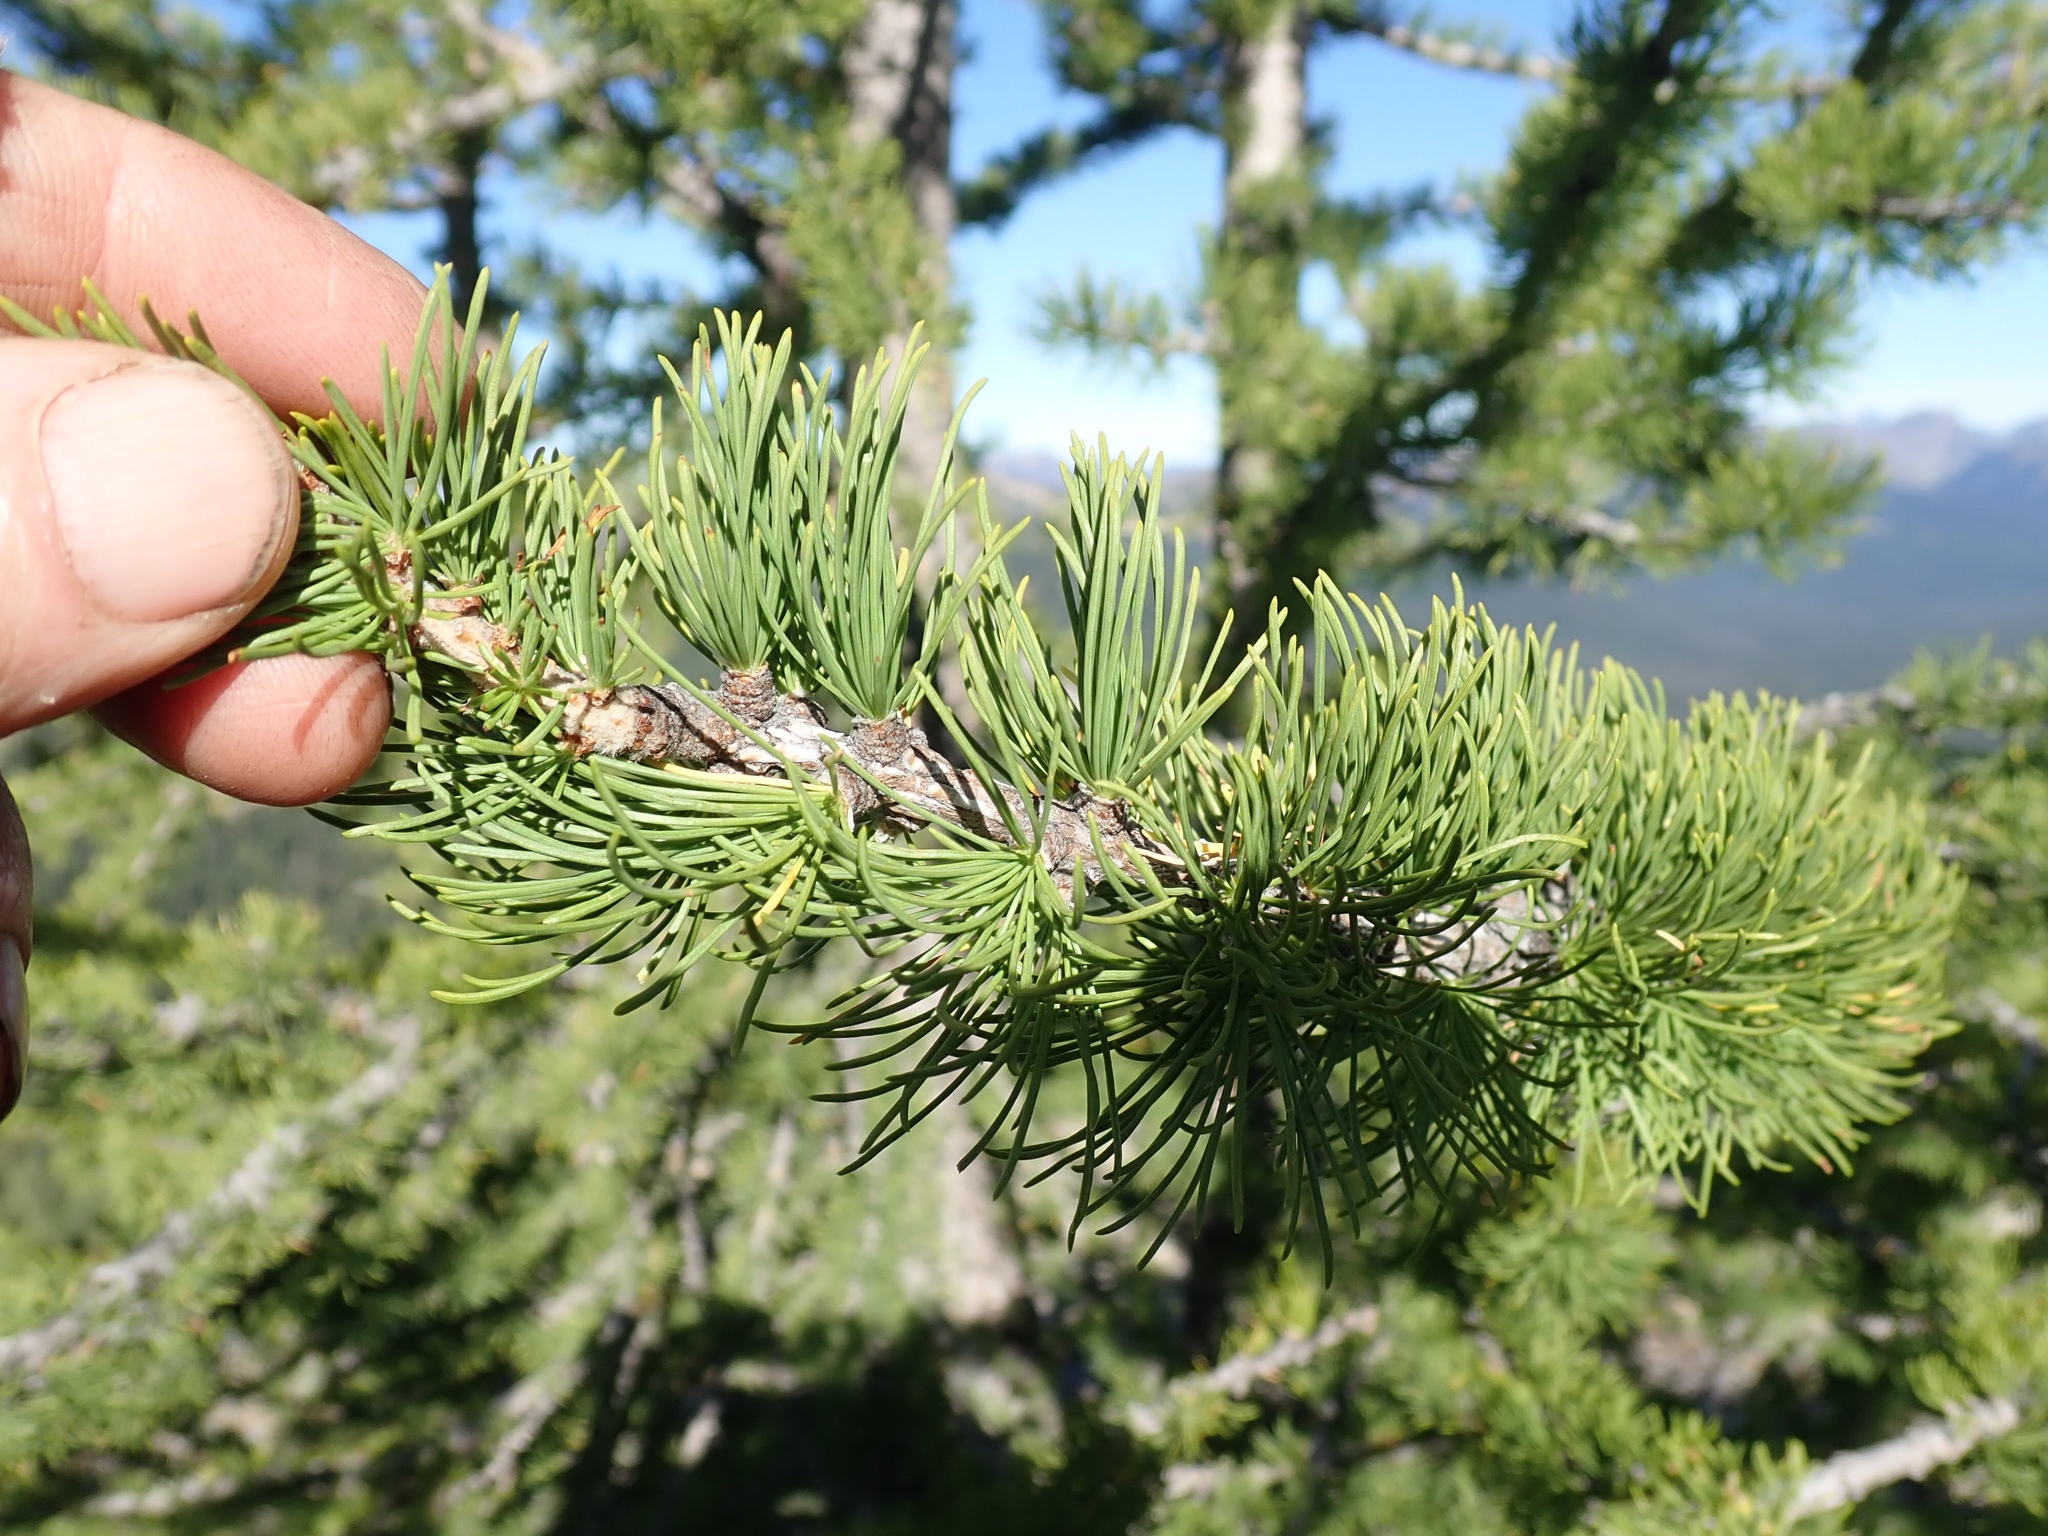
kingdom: Plantae
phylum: Tracheophyta
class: Pinopsida
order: Pinales
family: Pinaceae
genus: Larix
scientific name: Larix lyallii
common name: Alpine larch
